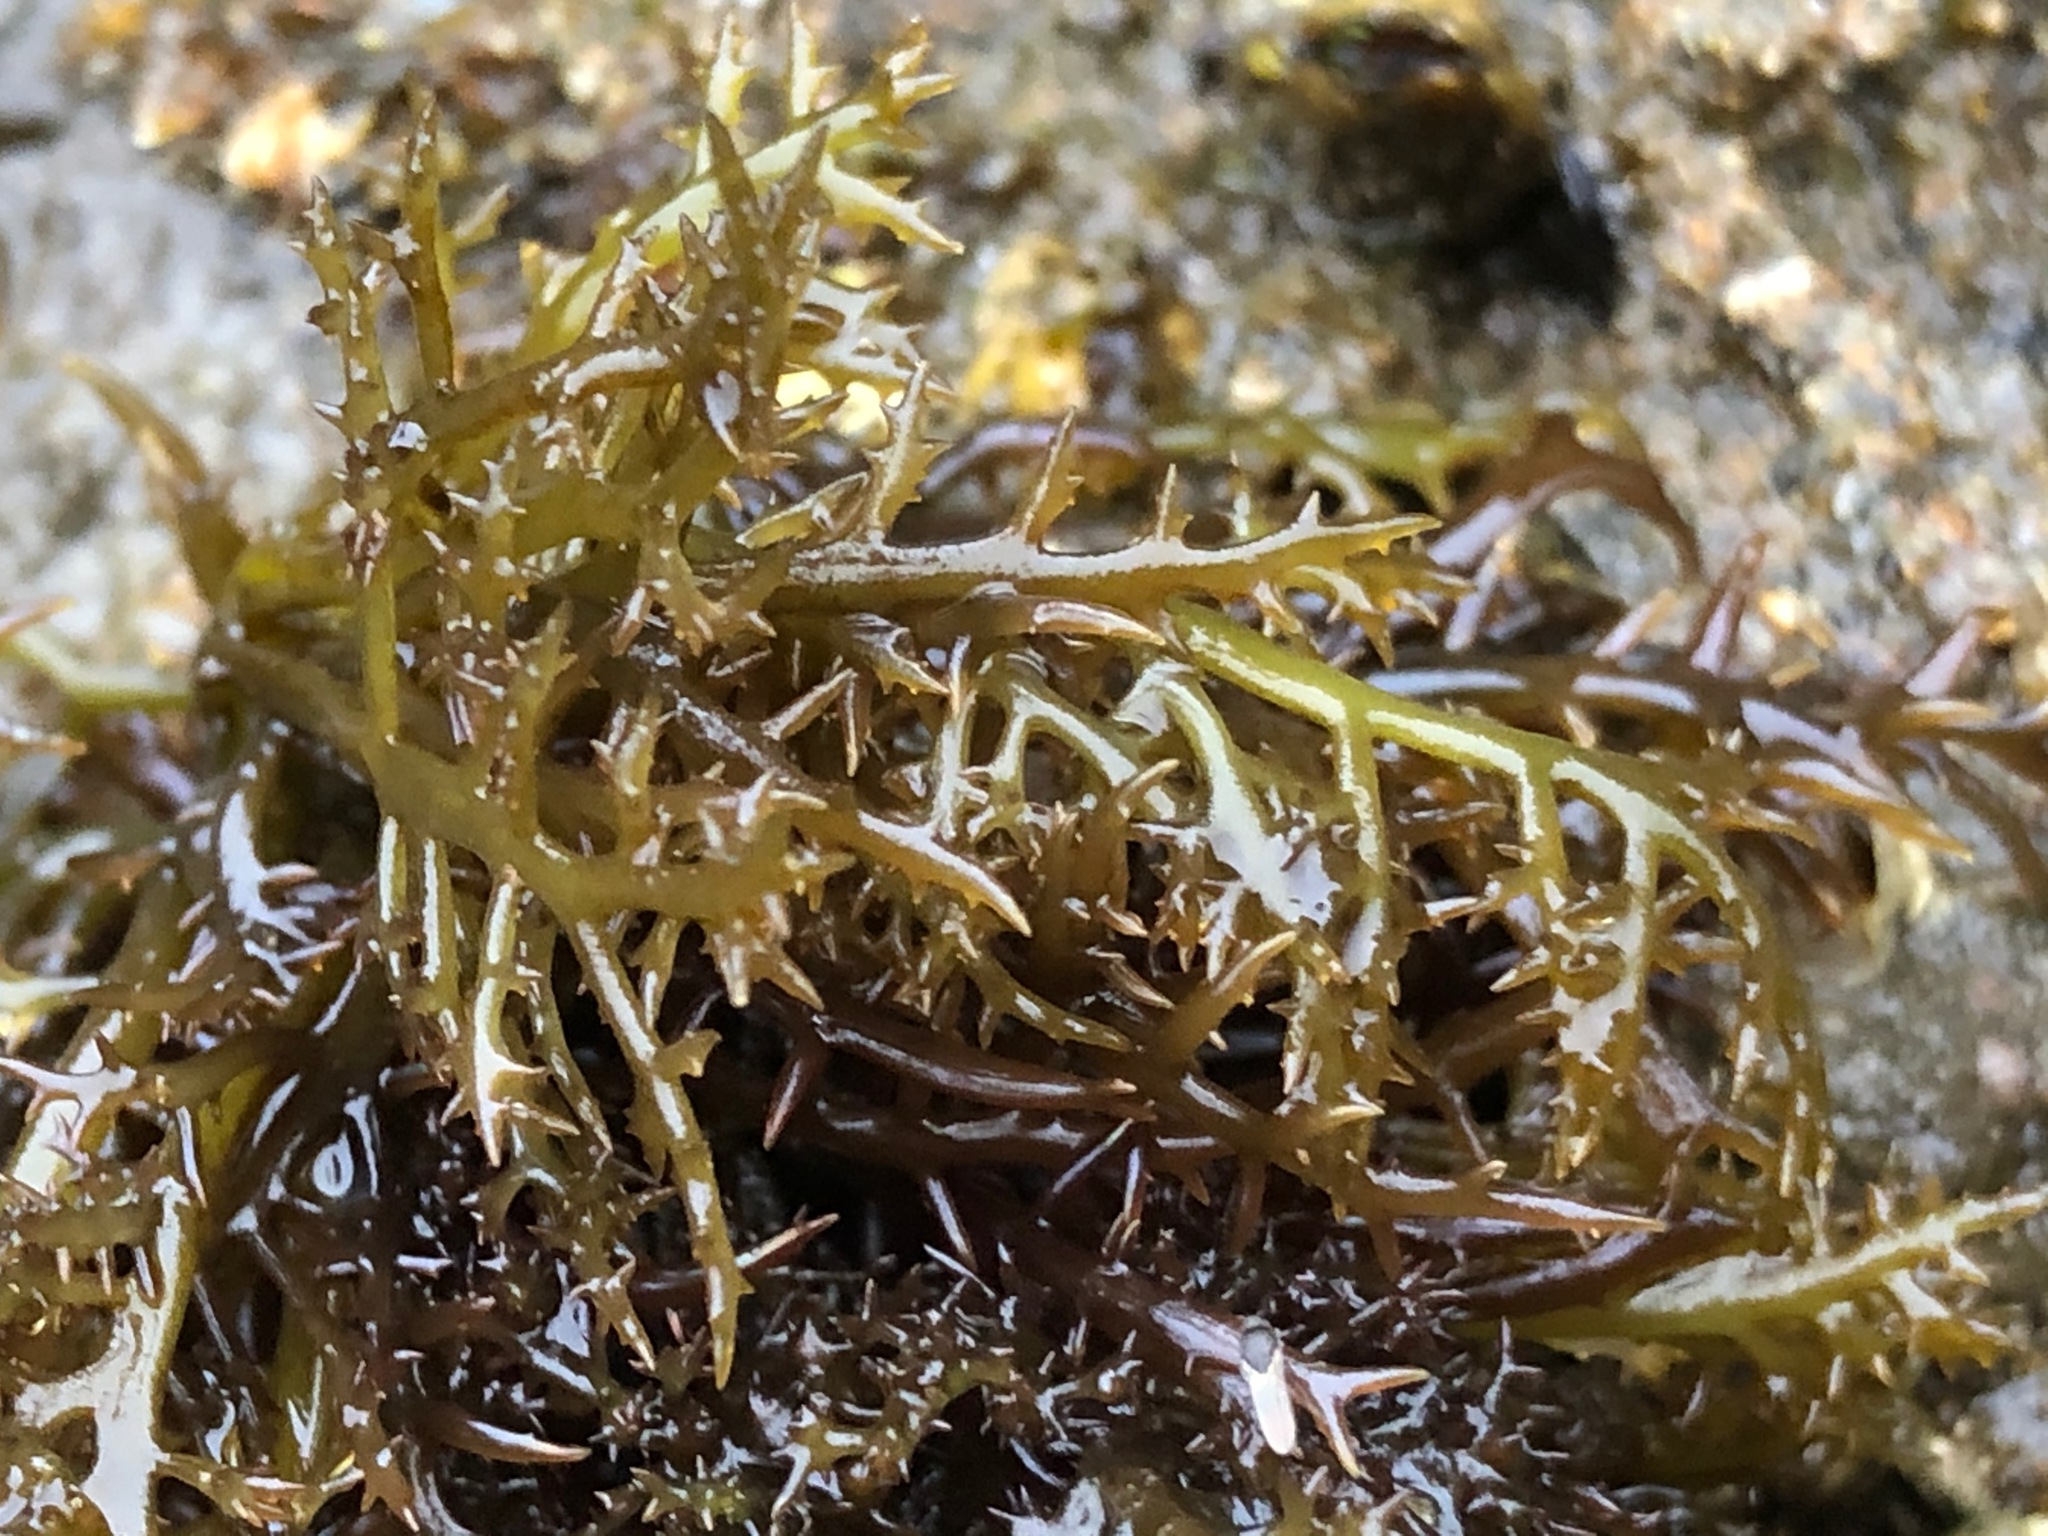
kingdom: Plantae
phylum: Rhodophyta
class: Florideophyceae
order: Gigartinales
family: Gigartinaceae
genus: Chondracanthus
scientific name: Chondracanthus canaliculatus
